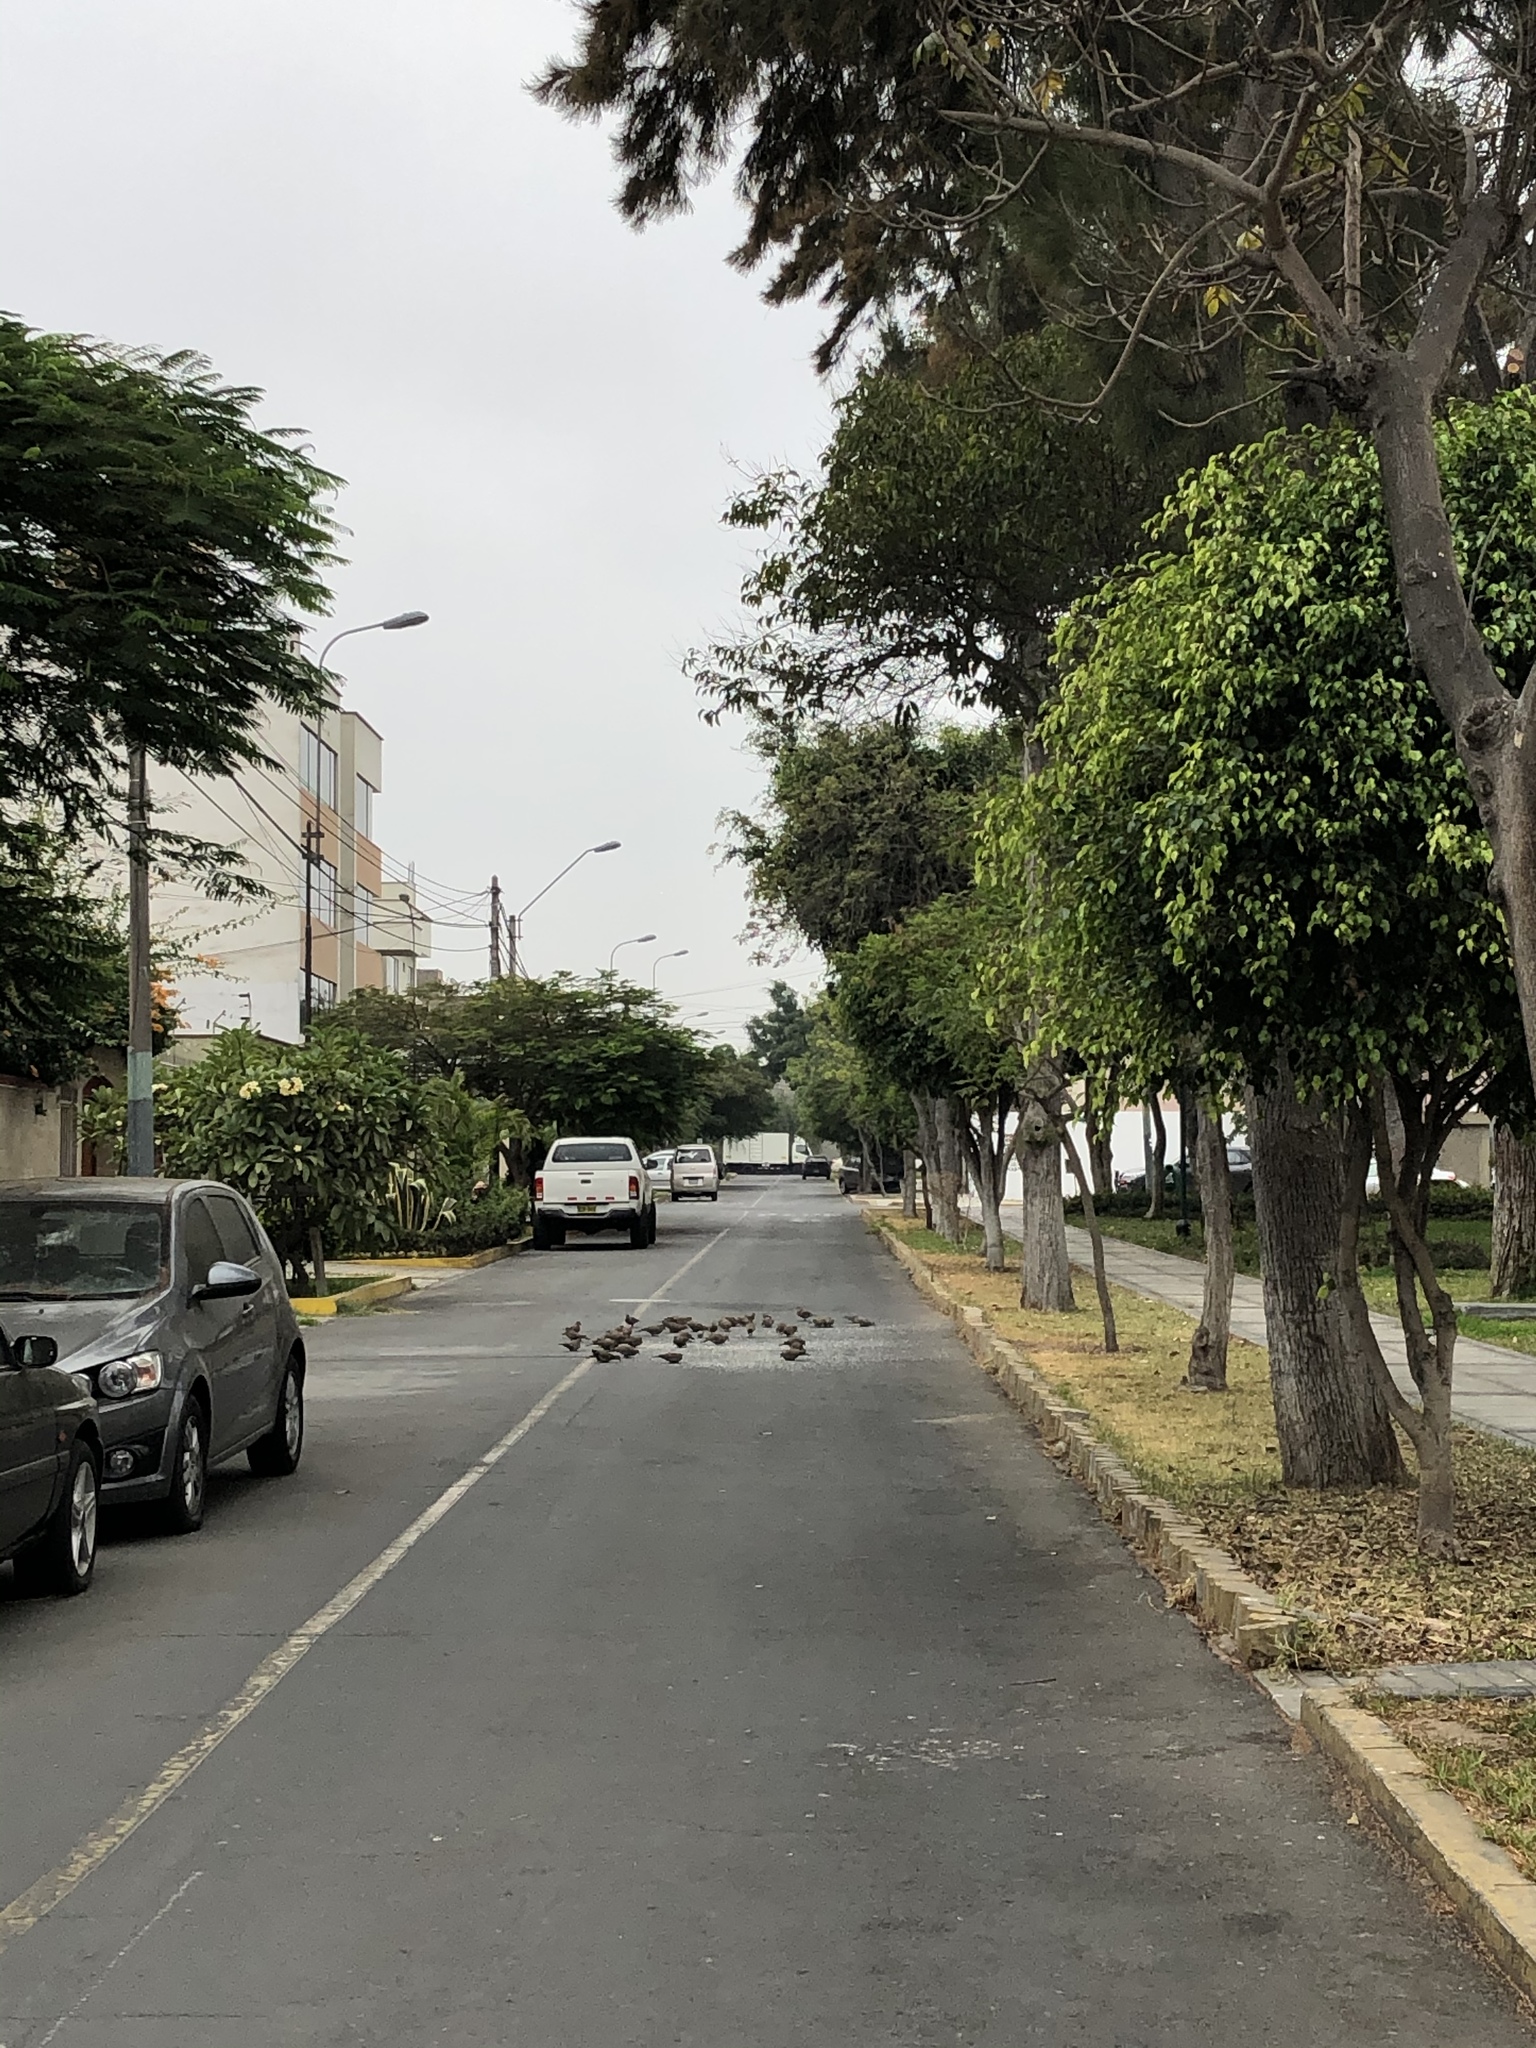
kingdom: Animalia
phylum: Chordata
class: Aves
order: Columbiformes
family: Columbidae
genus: Zenaida
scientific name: Zenaida meloda
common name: West peruvian dove
